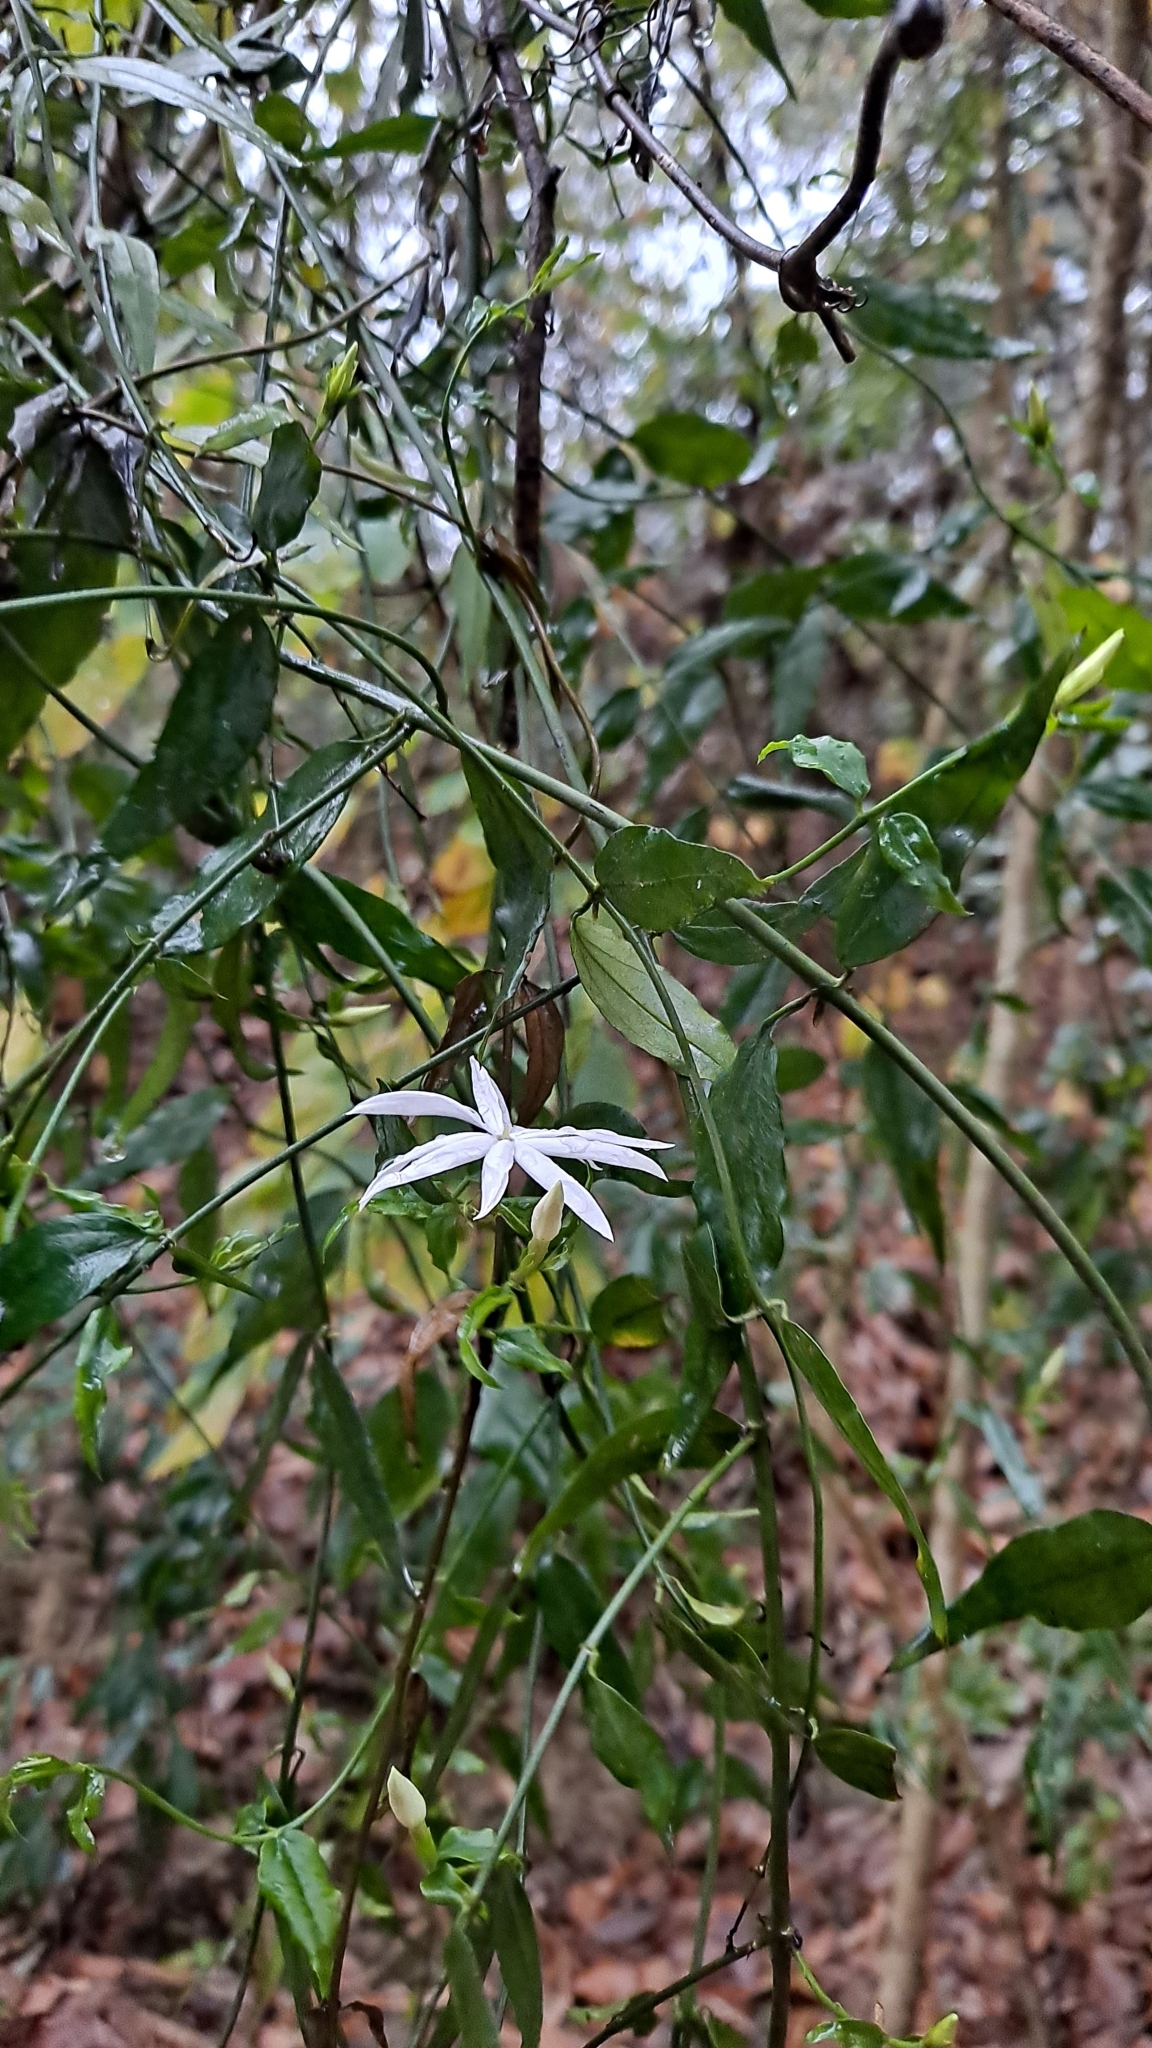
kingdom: Plantae
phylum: Tracheophyta
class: Magnoliopsida
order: Lamiales
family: Oleaceae
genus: Jasminum
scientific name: Jasminum nervosum
